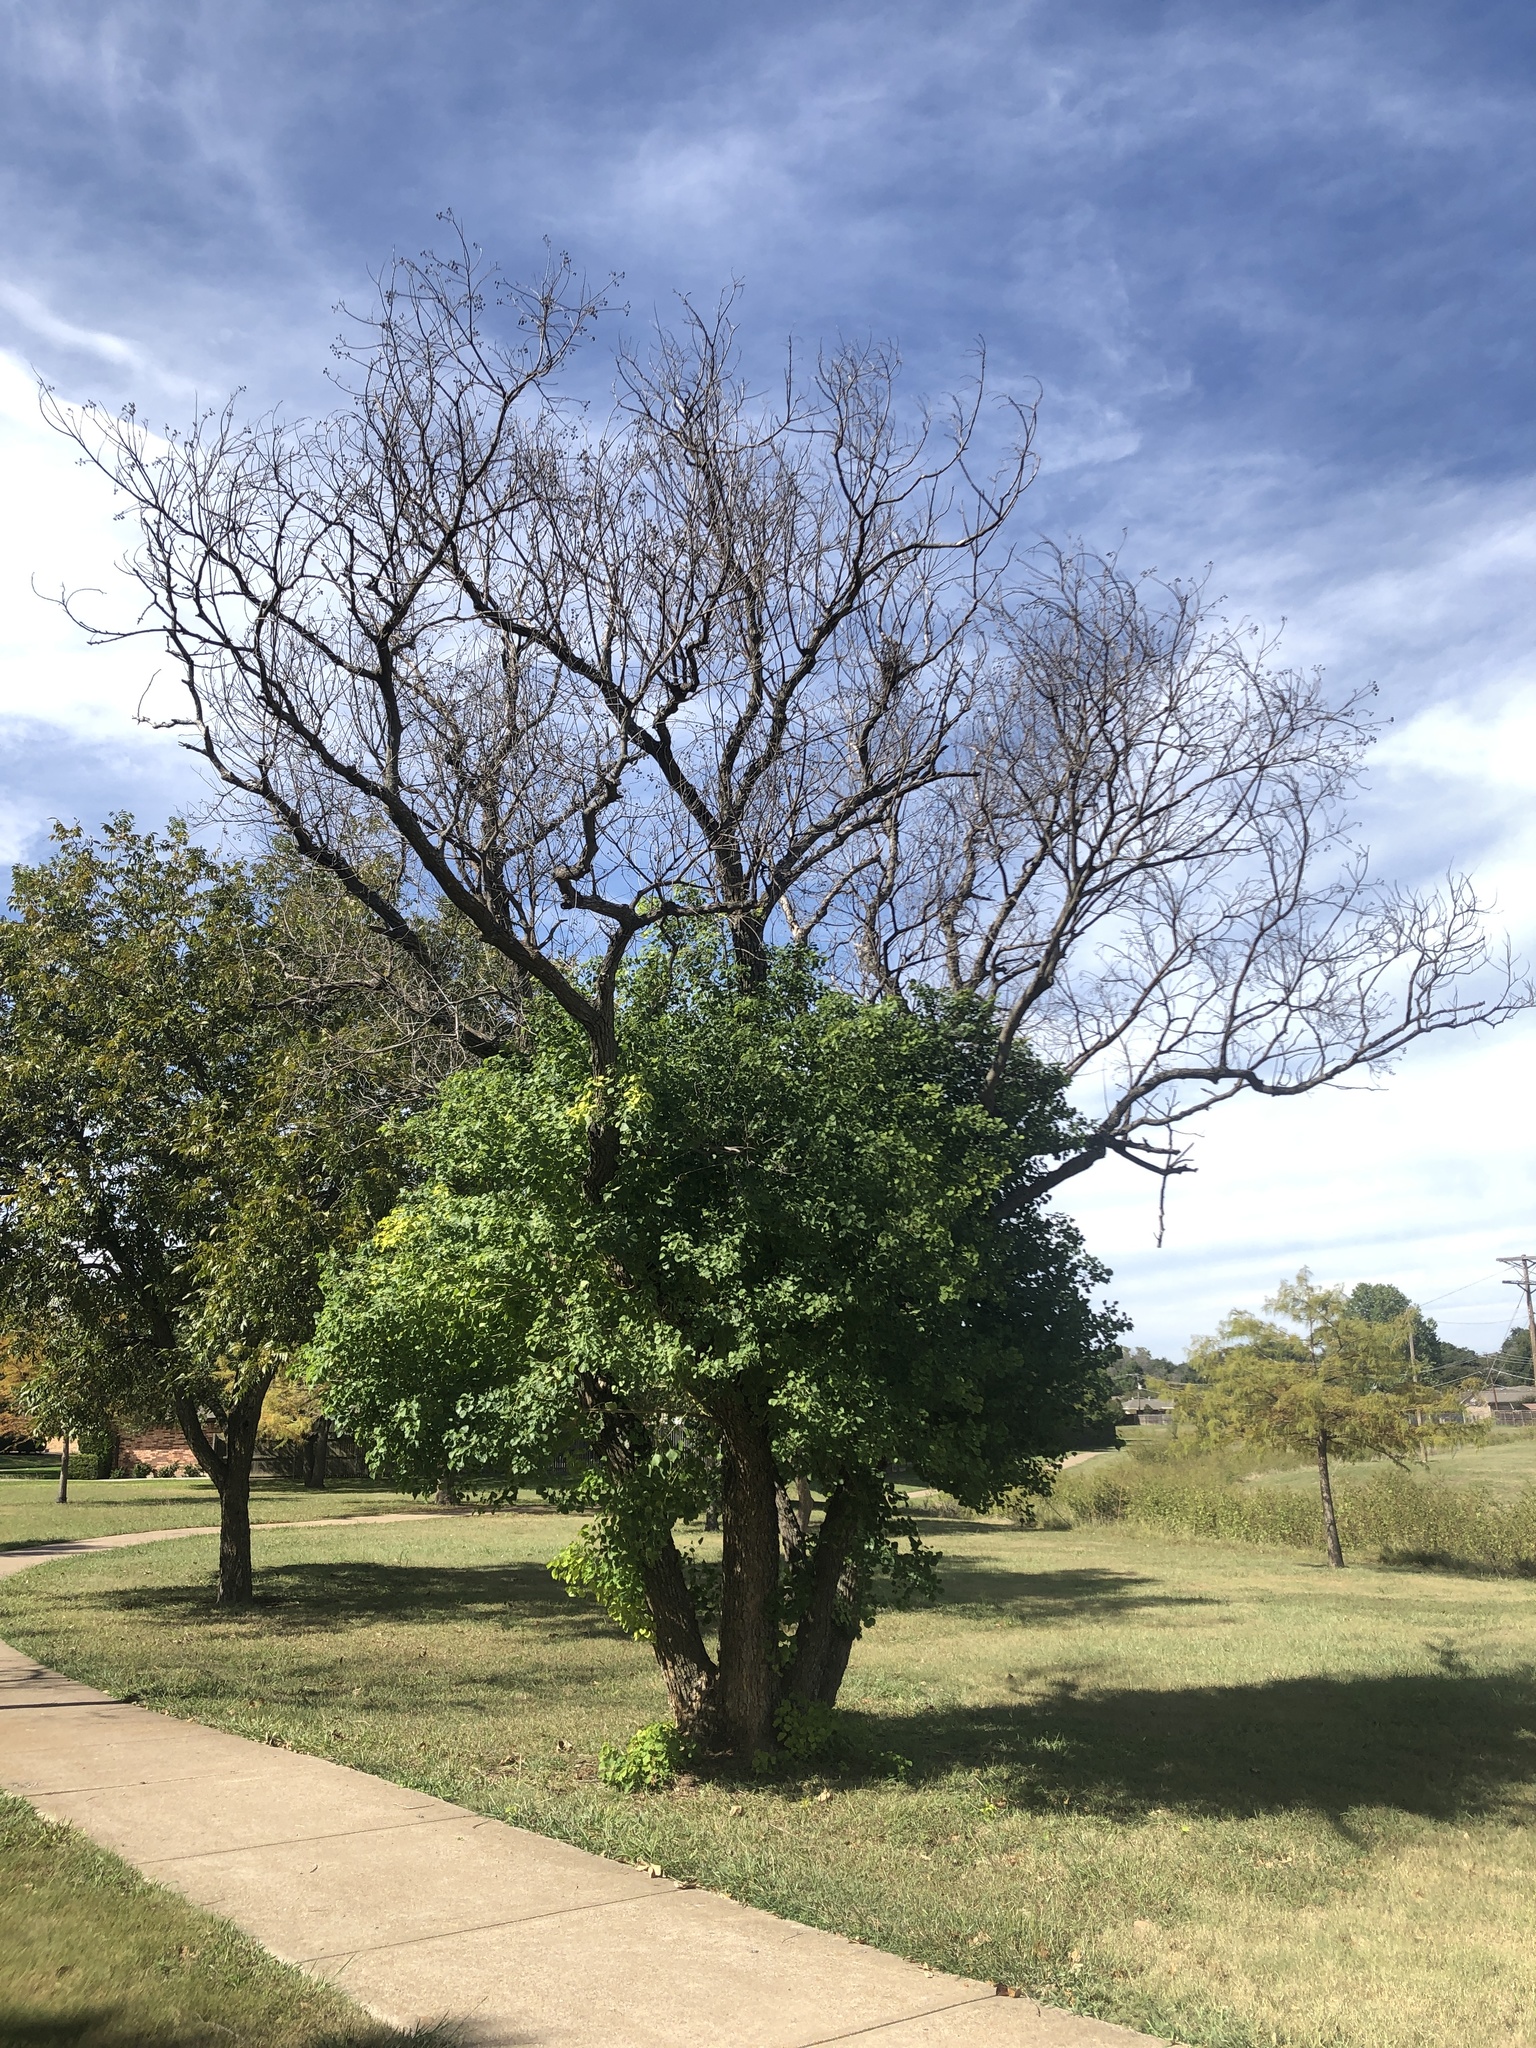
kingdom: Plantae
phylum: Tracheophyta
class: Magnoliopsida
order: Malpighiales
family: Euphorbiaceae
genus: Triadica
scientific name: Triadica sebifera
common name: Chinese tallow
